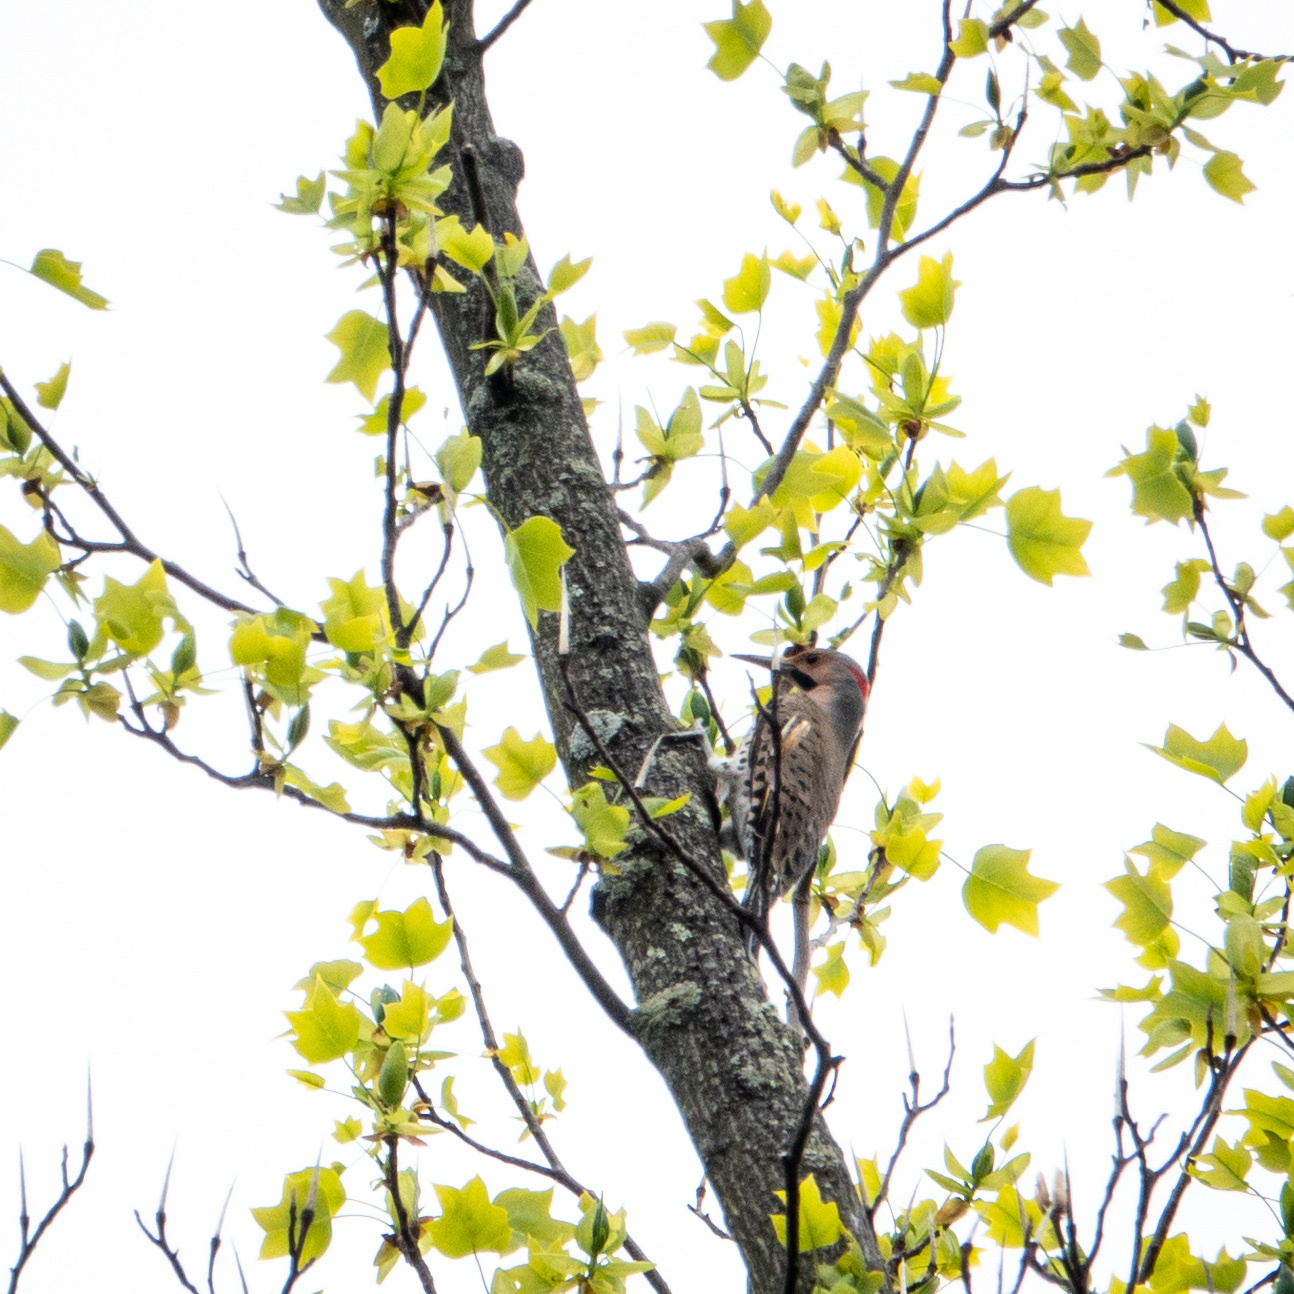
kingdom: Animalia
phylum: Chordata
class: Aves
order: Piciformes
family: Picidae
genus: Colaptes
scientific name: Colaptes auratus
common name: Northern flicker
